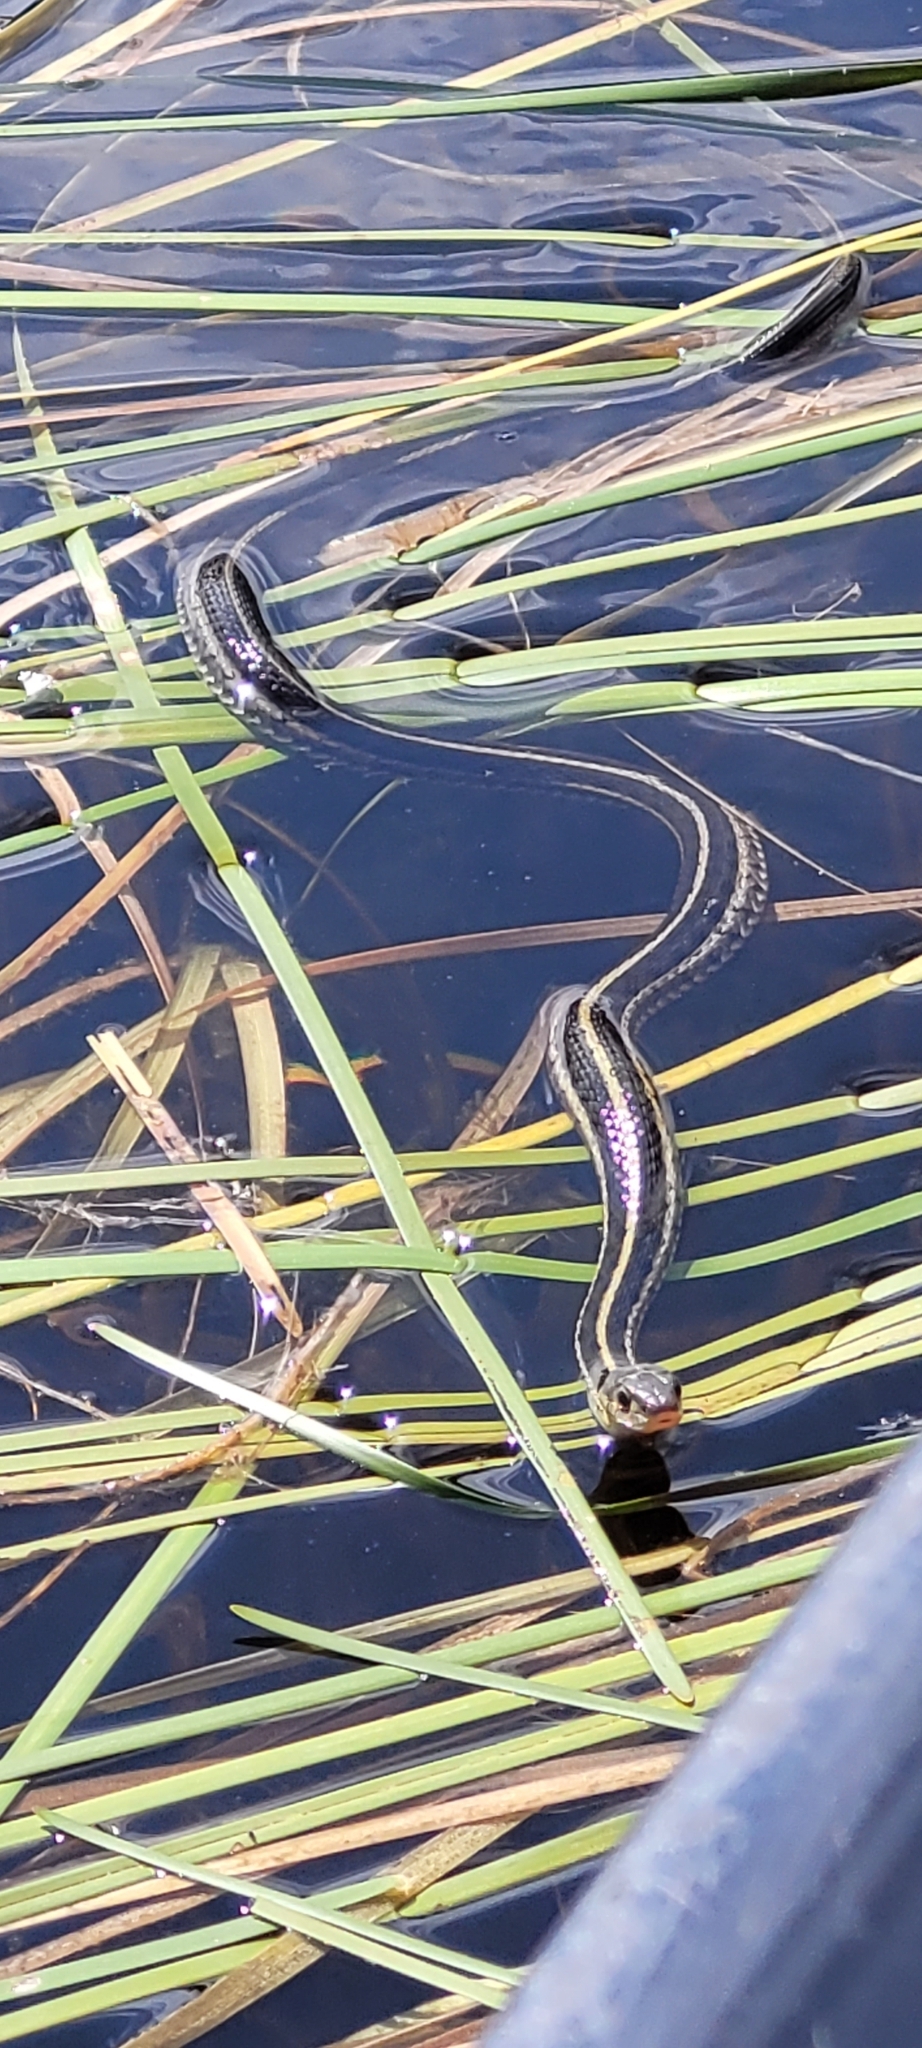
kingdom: Animalia
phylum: Chordata
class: Squamata
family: Colubridae
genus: Thamnophis
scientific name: Thamnophis sirtalis
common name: Common garter snake
